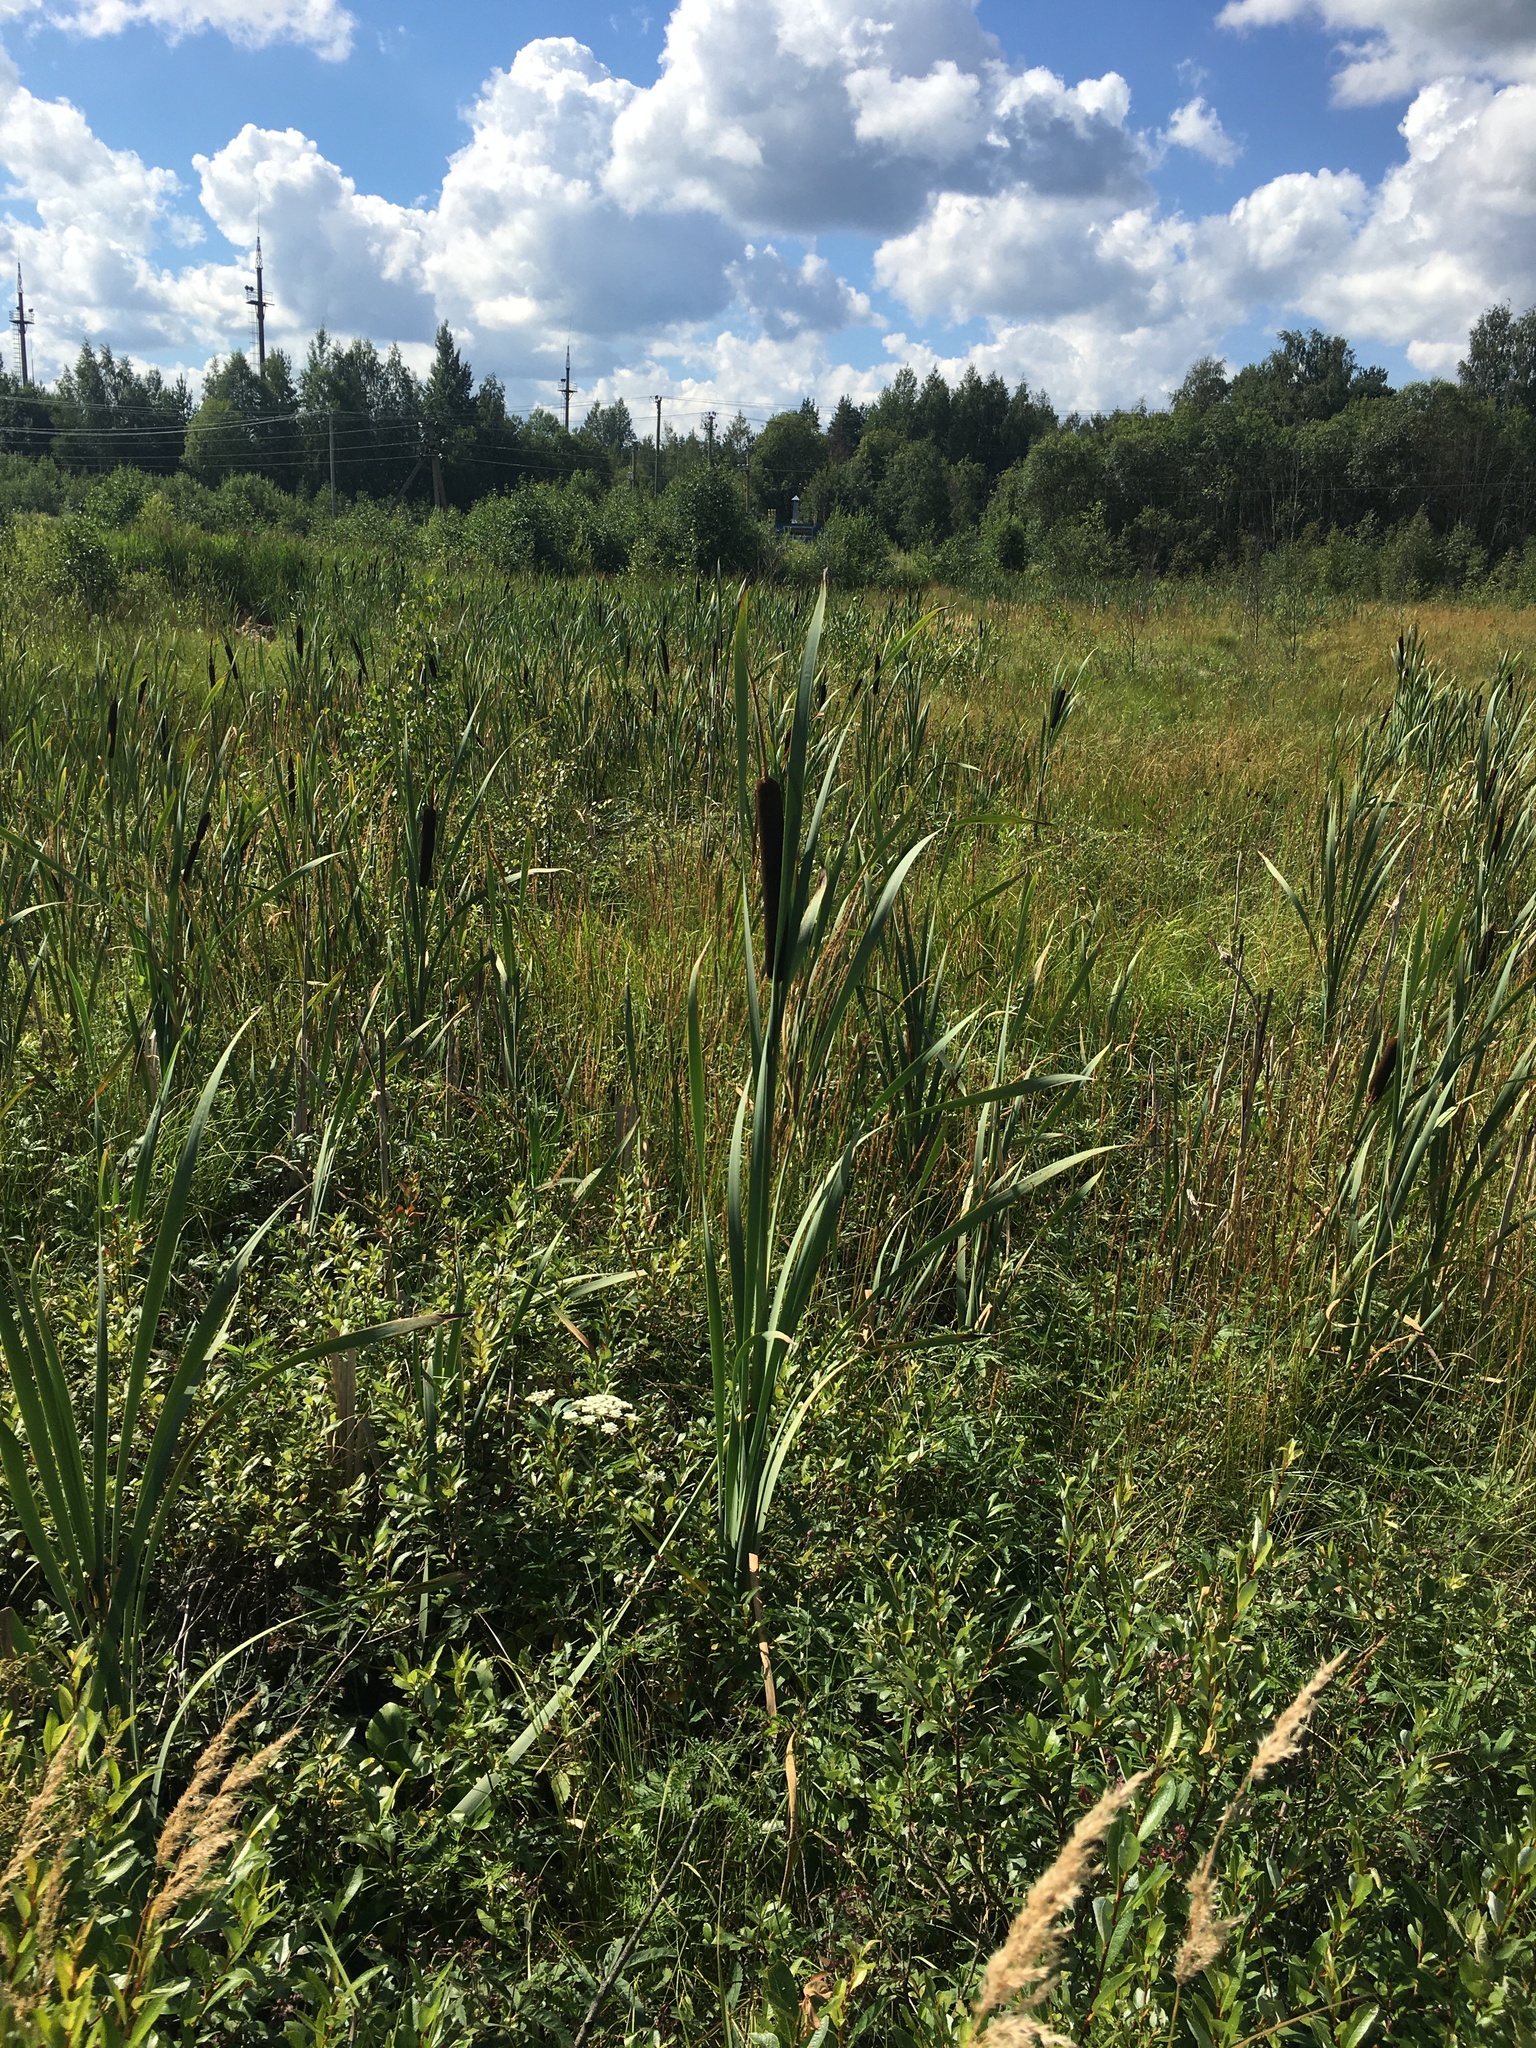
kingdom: Plantae
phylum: Tracheophyta
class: Liliopsida
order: Poales
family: Typhaceae
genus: Typha
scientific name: Typha latifolia
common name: Broadleaf cattail
